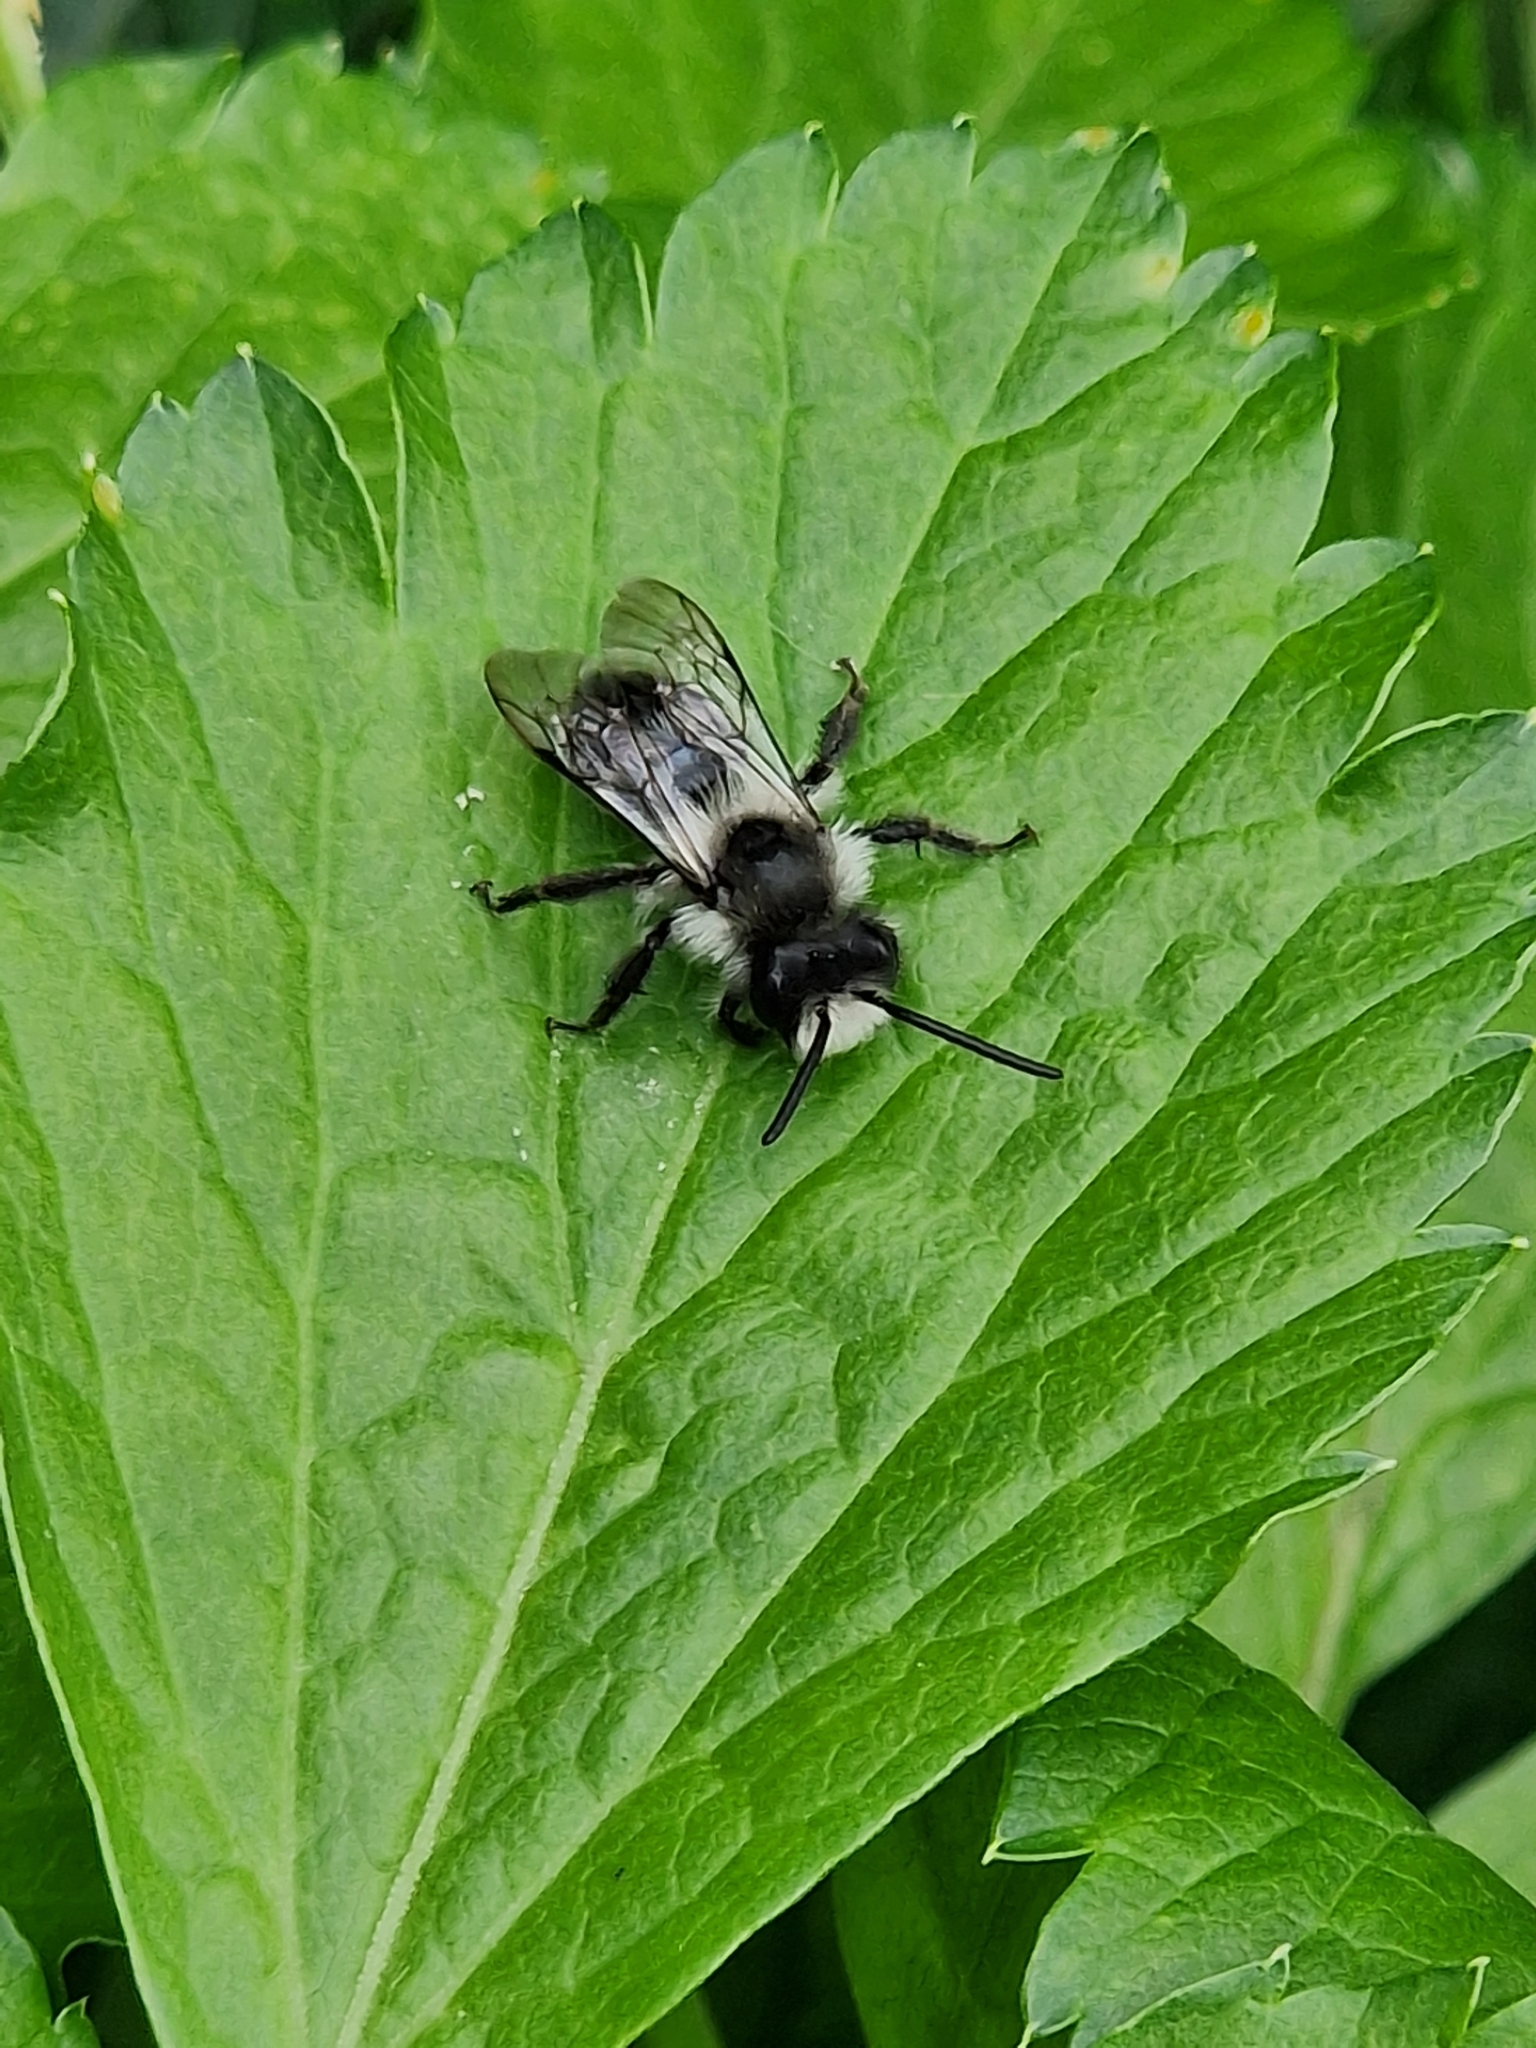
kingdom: Animalia
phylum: Arthropoda
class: Insecta
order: Hymenoptera
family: Andrenidae
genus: Andrena
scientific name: Andrena cineraria
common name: Ashy mining bee
